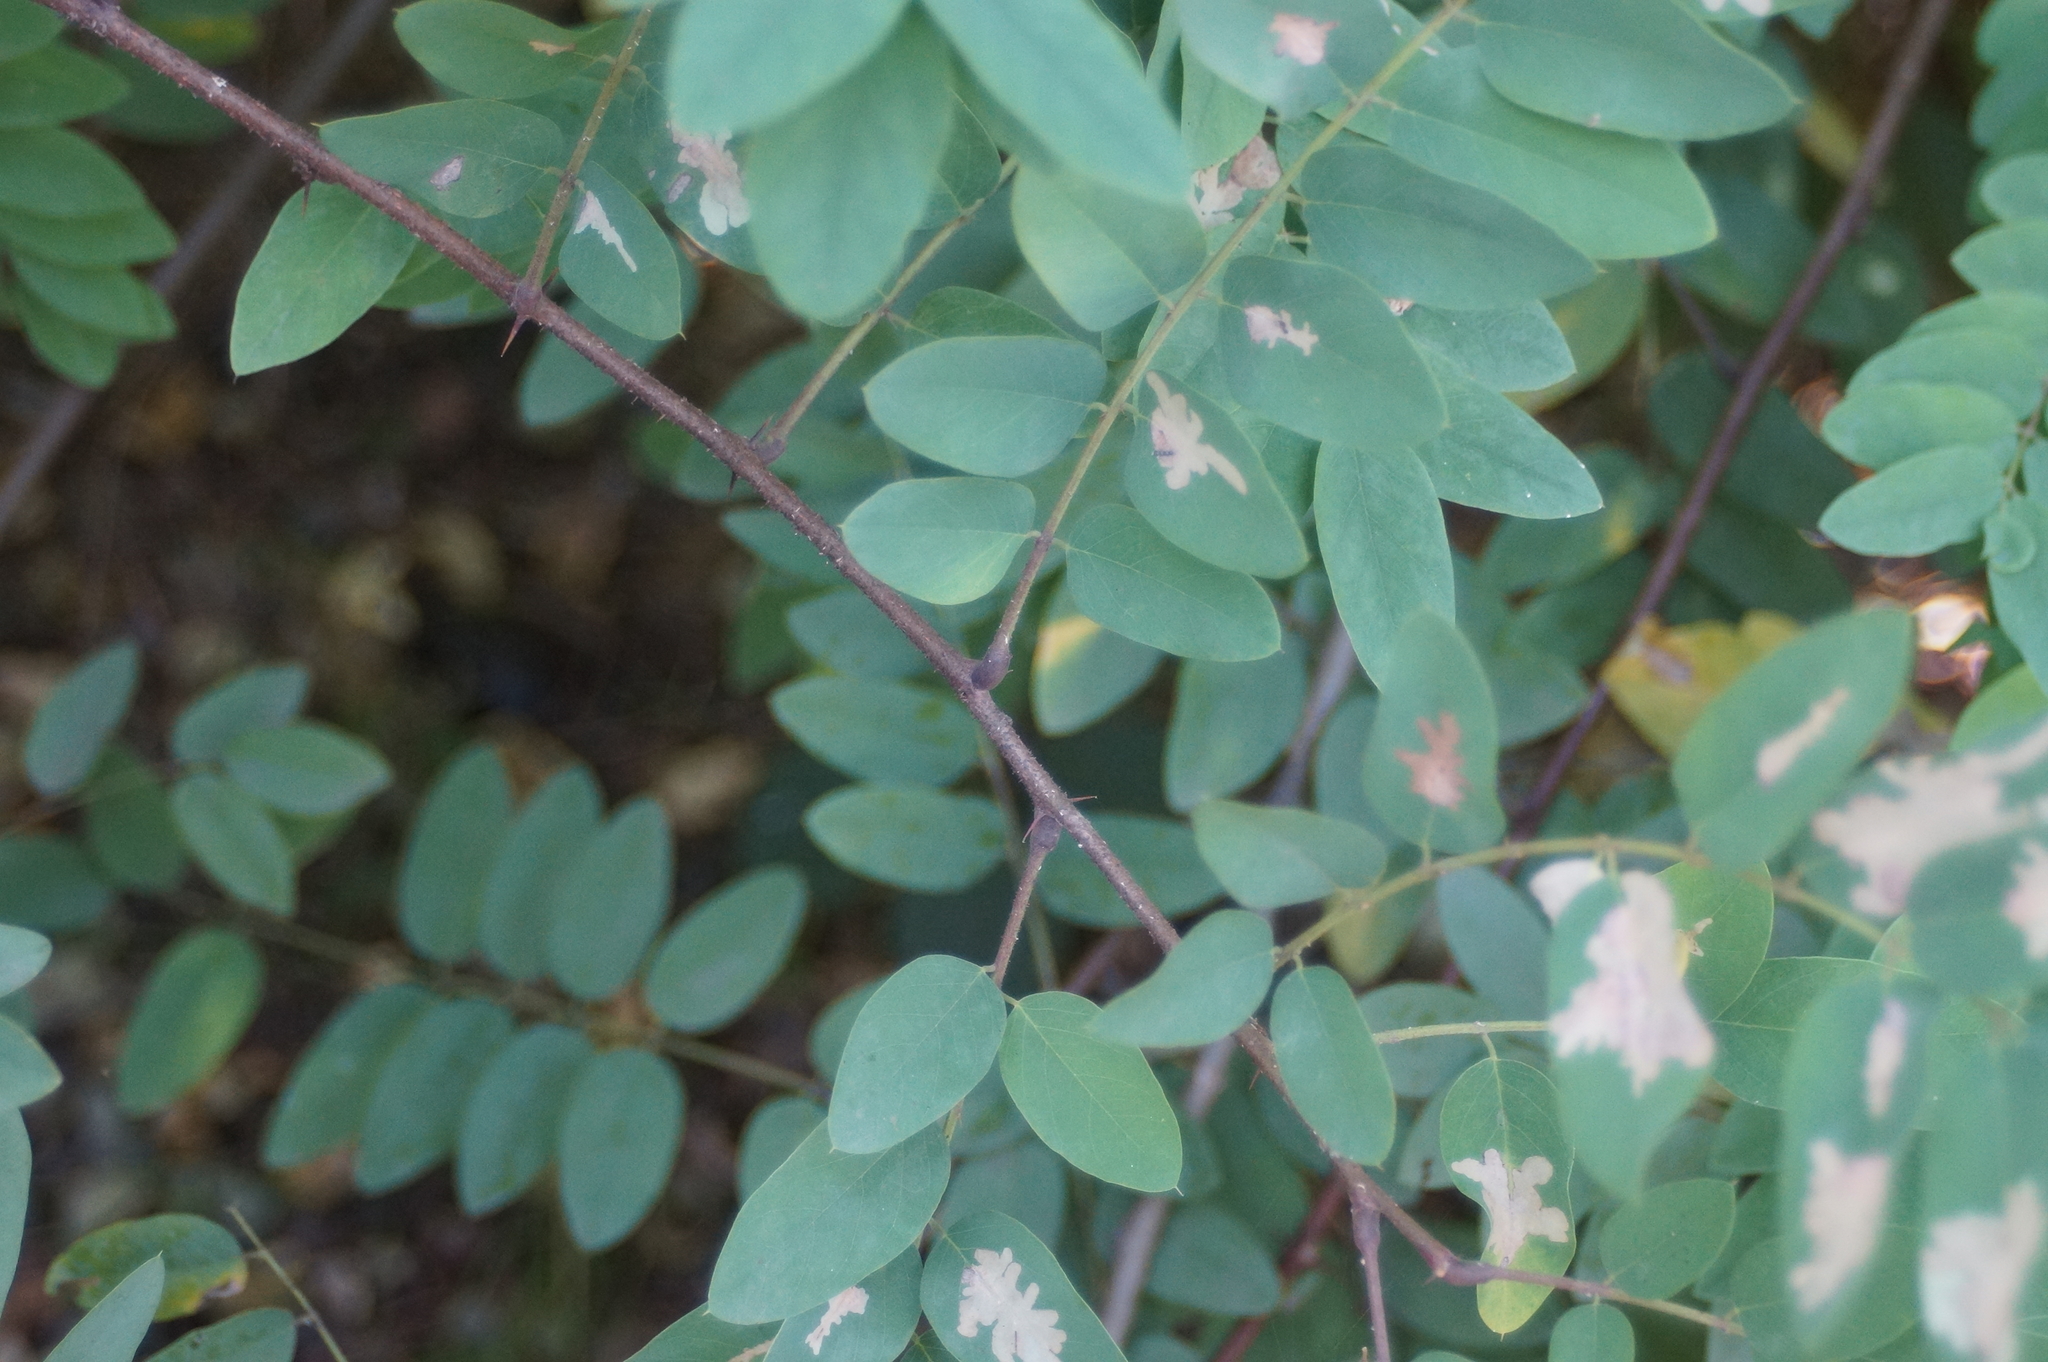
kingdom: Plantae
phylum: Tracheophyta
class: Magnoliopsida
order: Fabales
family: Fabaceae
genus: Robinia
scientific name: Robinia viscosa
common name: Clammy locust
